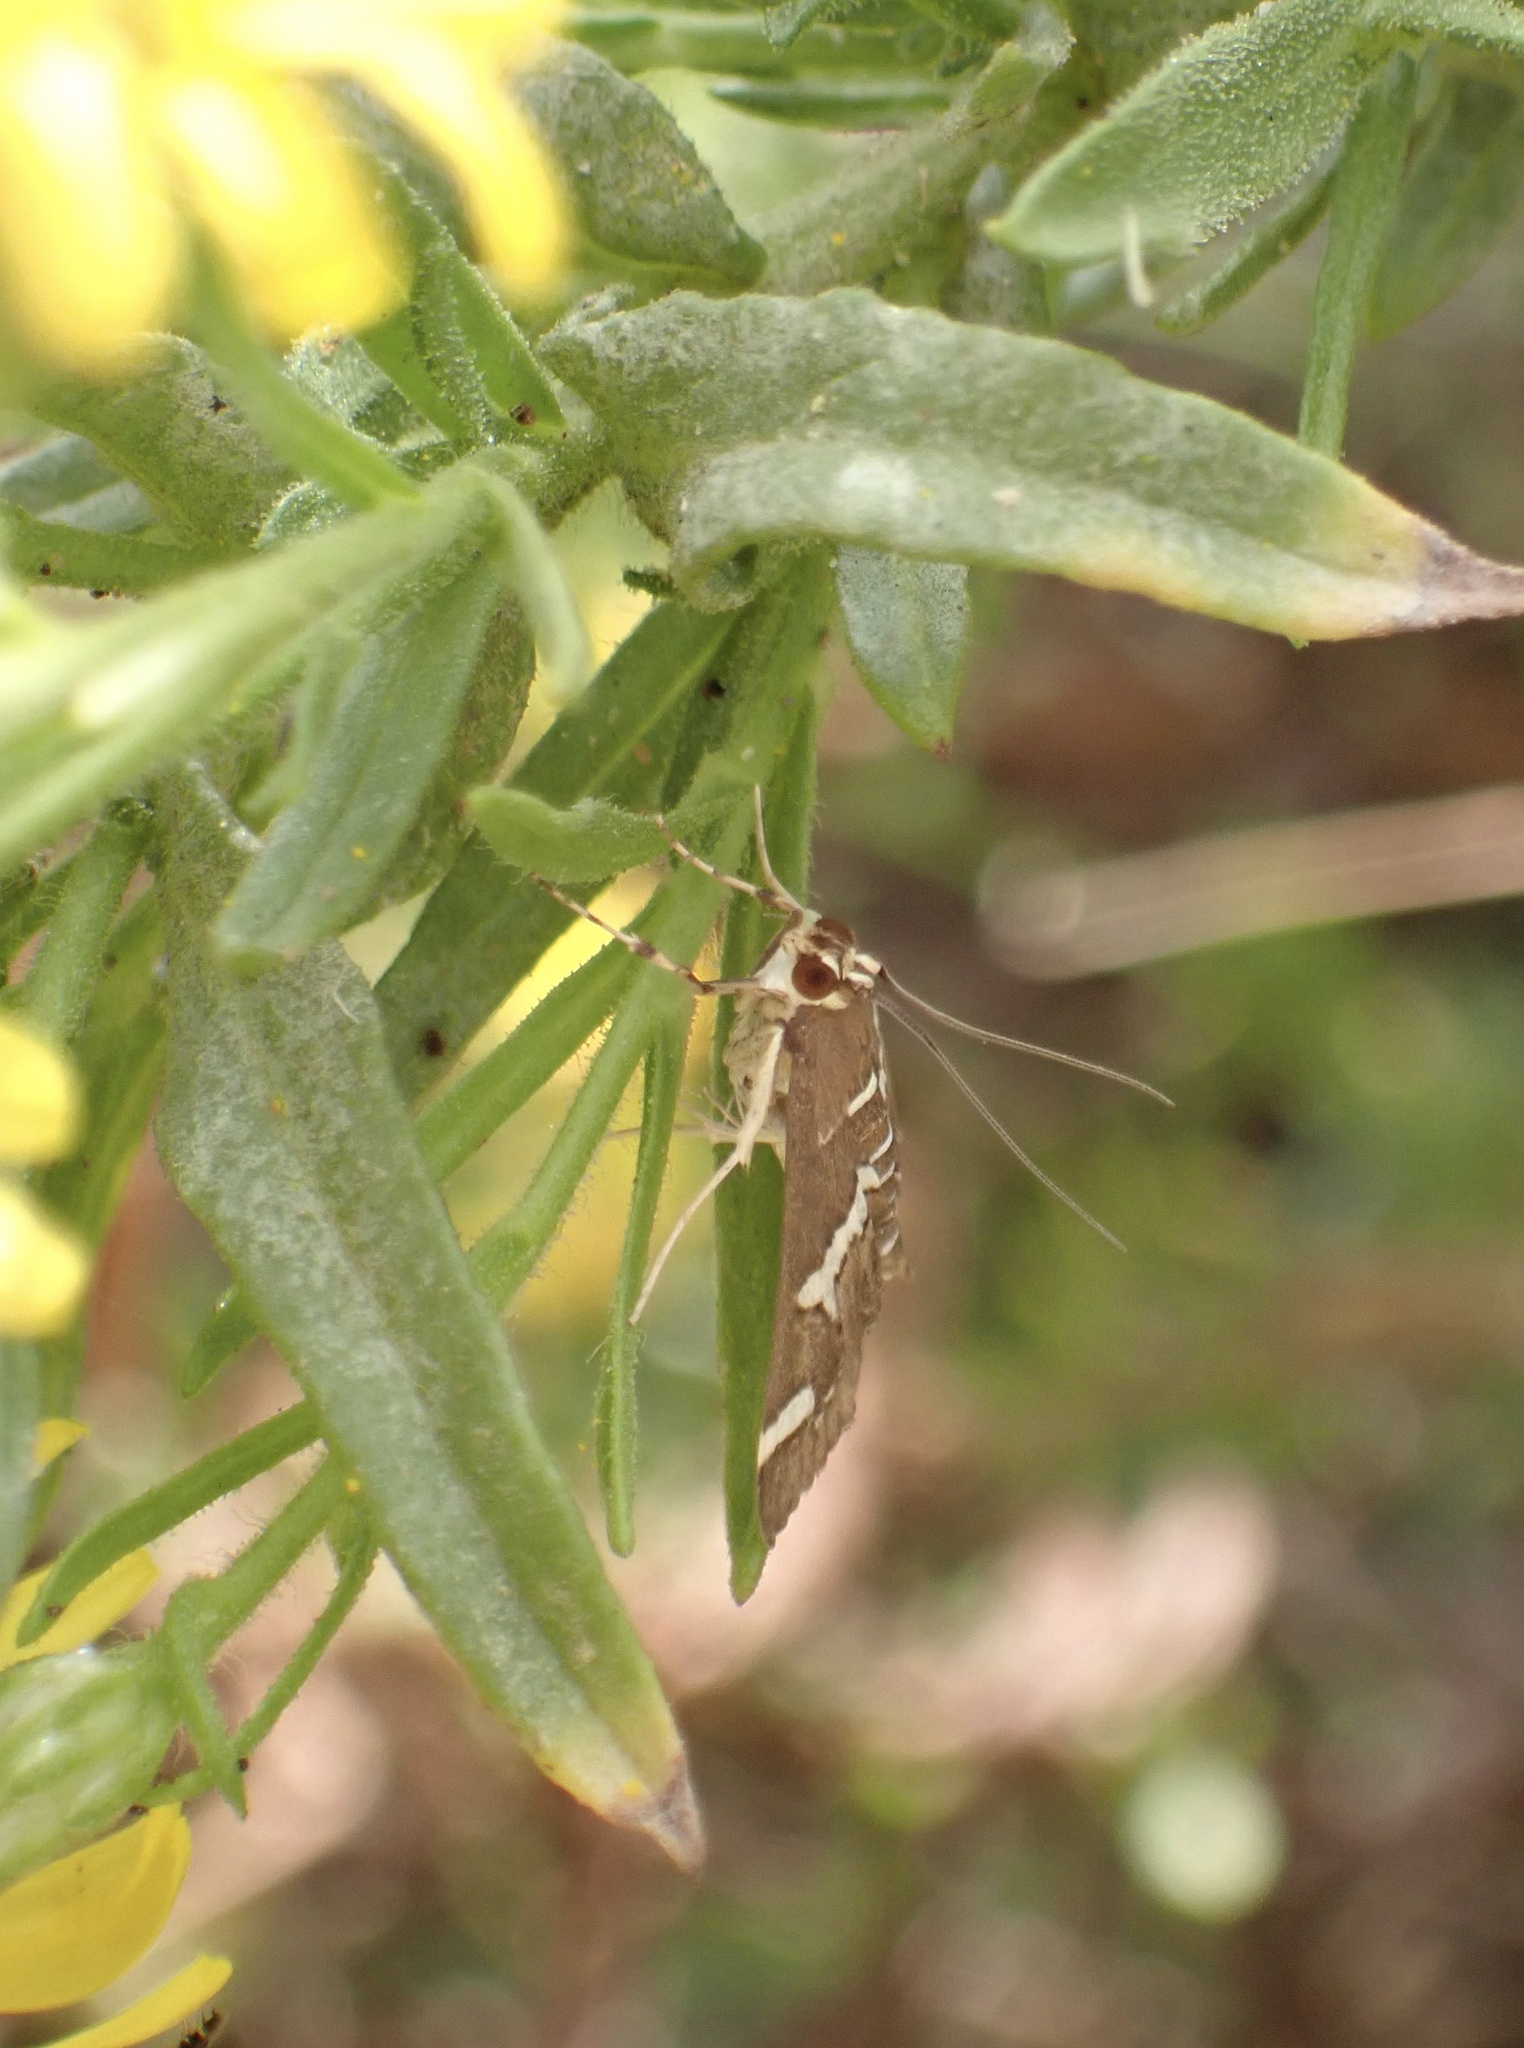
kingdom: Animalia
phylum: Arthropoda
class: Insecta
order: Lepidoptera
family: Crambidae
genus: Spoladea
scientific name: Spoladea recurvalis
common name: Beet webworm moth
